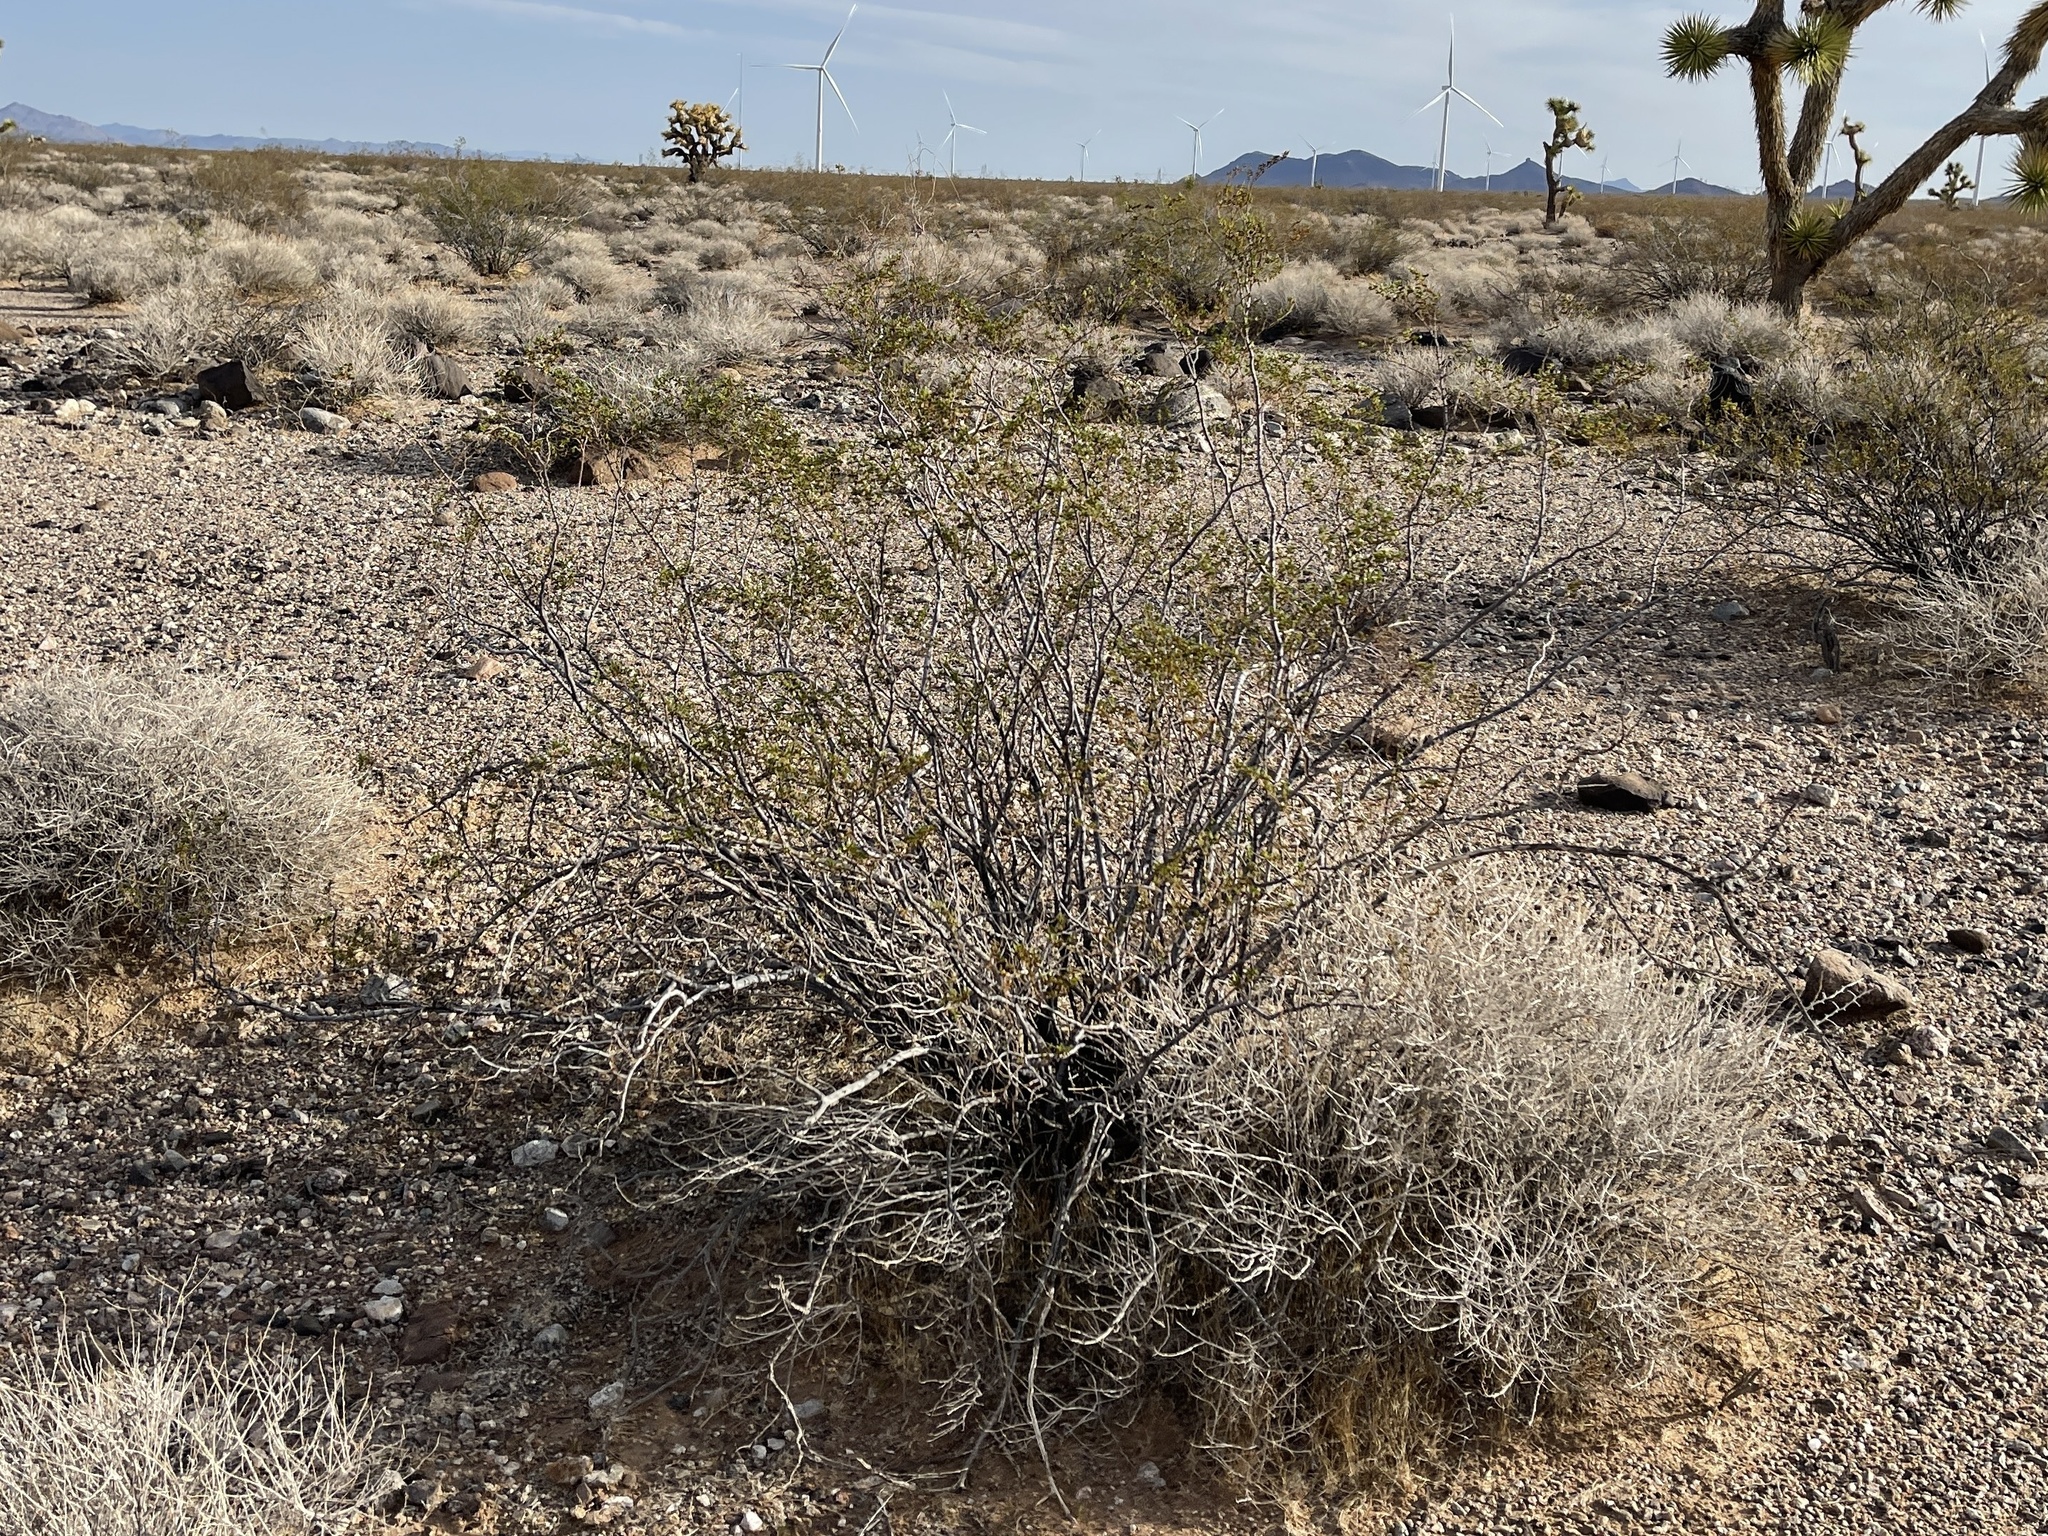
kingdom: Plantae
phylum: Tracheophyta
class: Magnoliopsida
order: Zygophyllales
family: Zygophyllaceae
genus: Larrea
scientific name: Larrea tridentata
